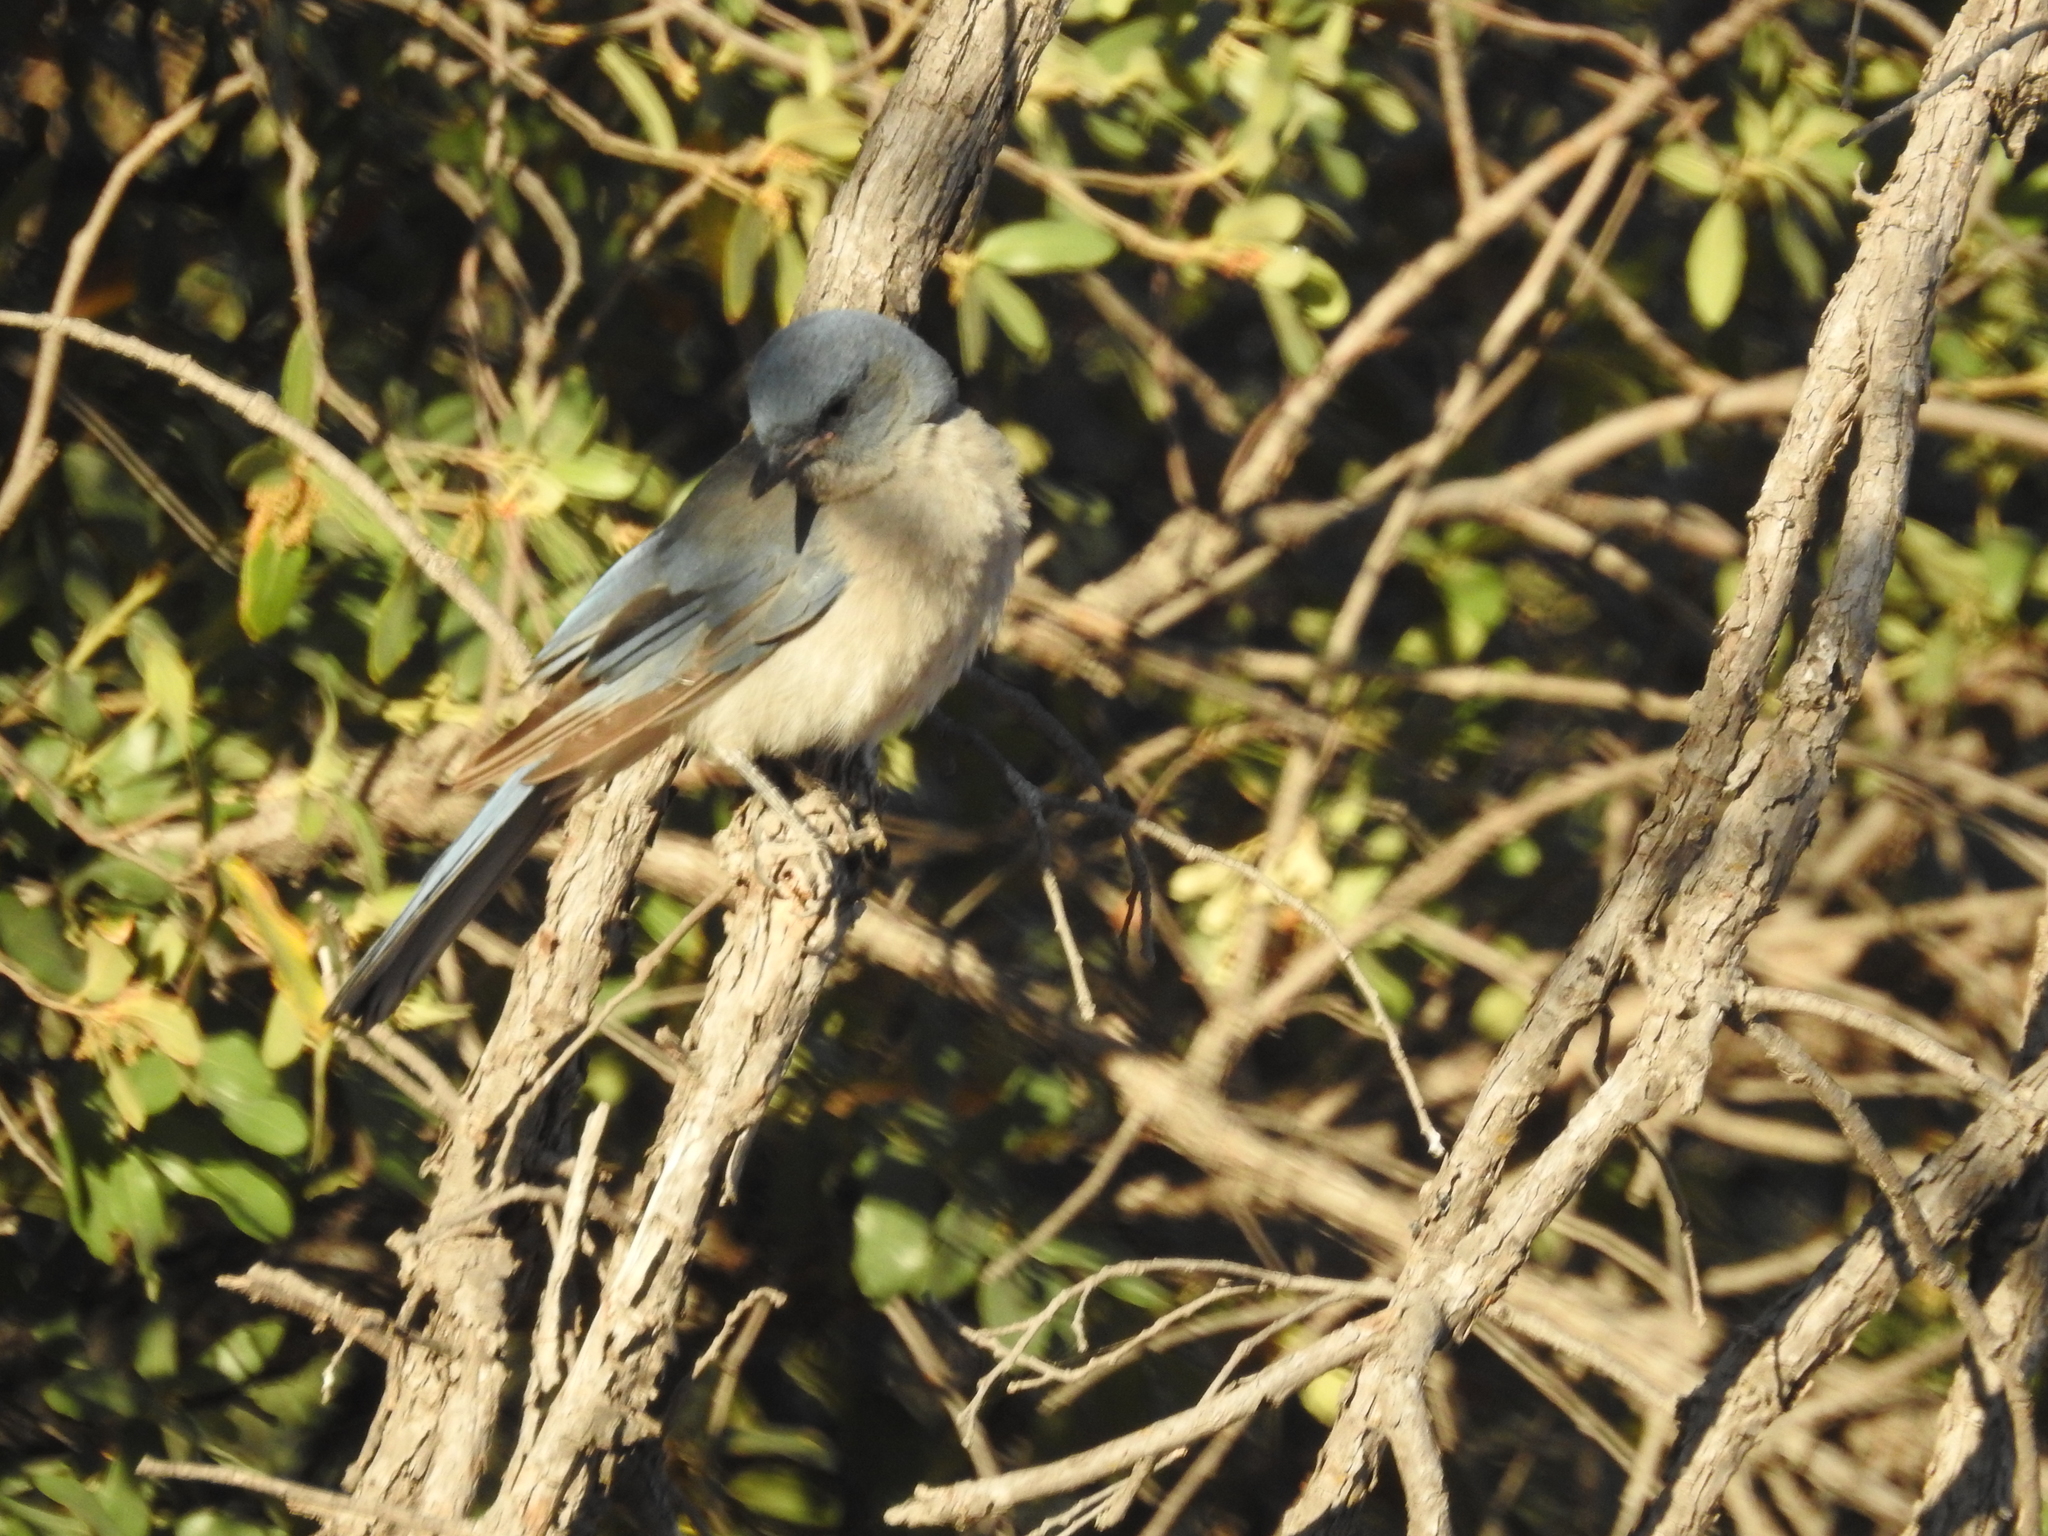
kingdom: Animalia
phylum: Chordata
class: Aves
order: Passeriformes
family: Corvidae
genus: Aphelocoma
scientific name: Aphelocoma wollweberi
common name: Mexican jay
